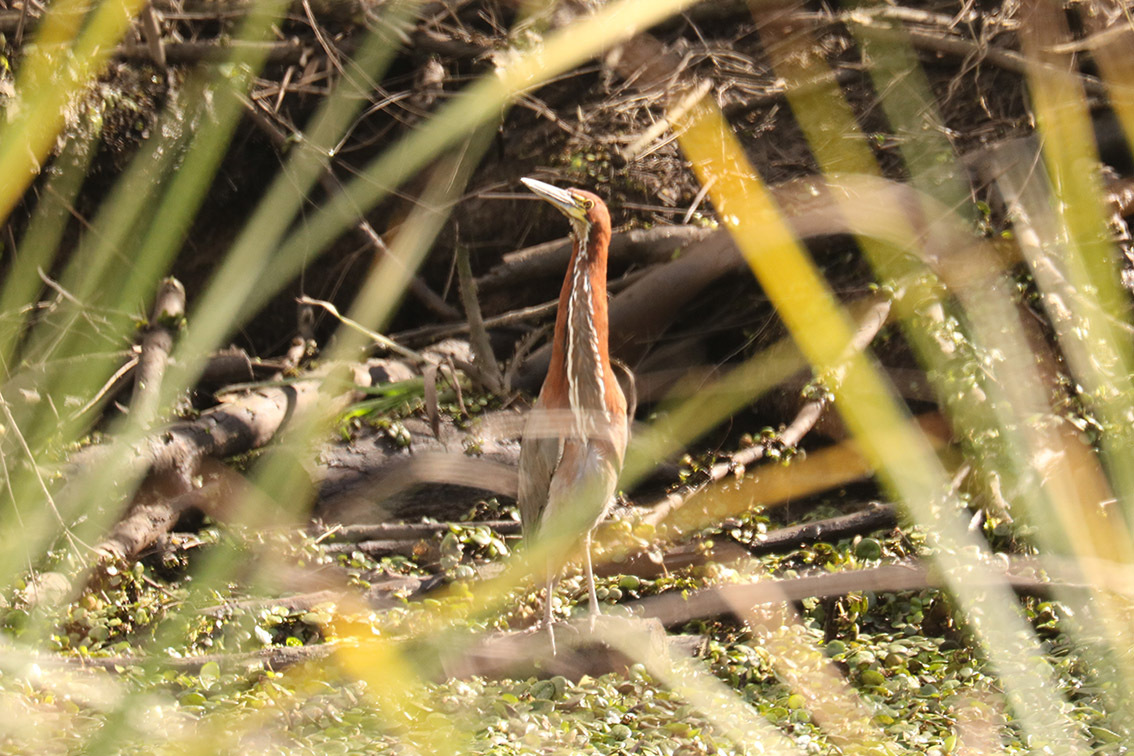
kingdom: Animalia
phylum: Chordata
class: Aves
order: Pelecaniformes
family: Ardeidae
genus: Tigrisoma
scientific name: Tigrisoma lineatum
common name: Rufescent tiger-heron
